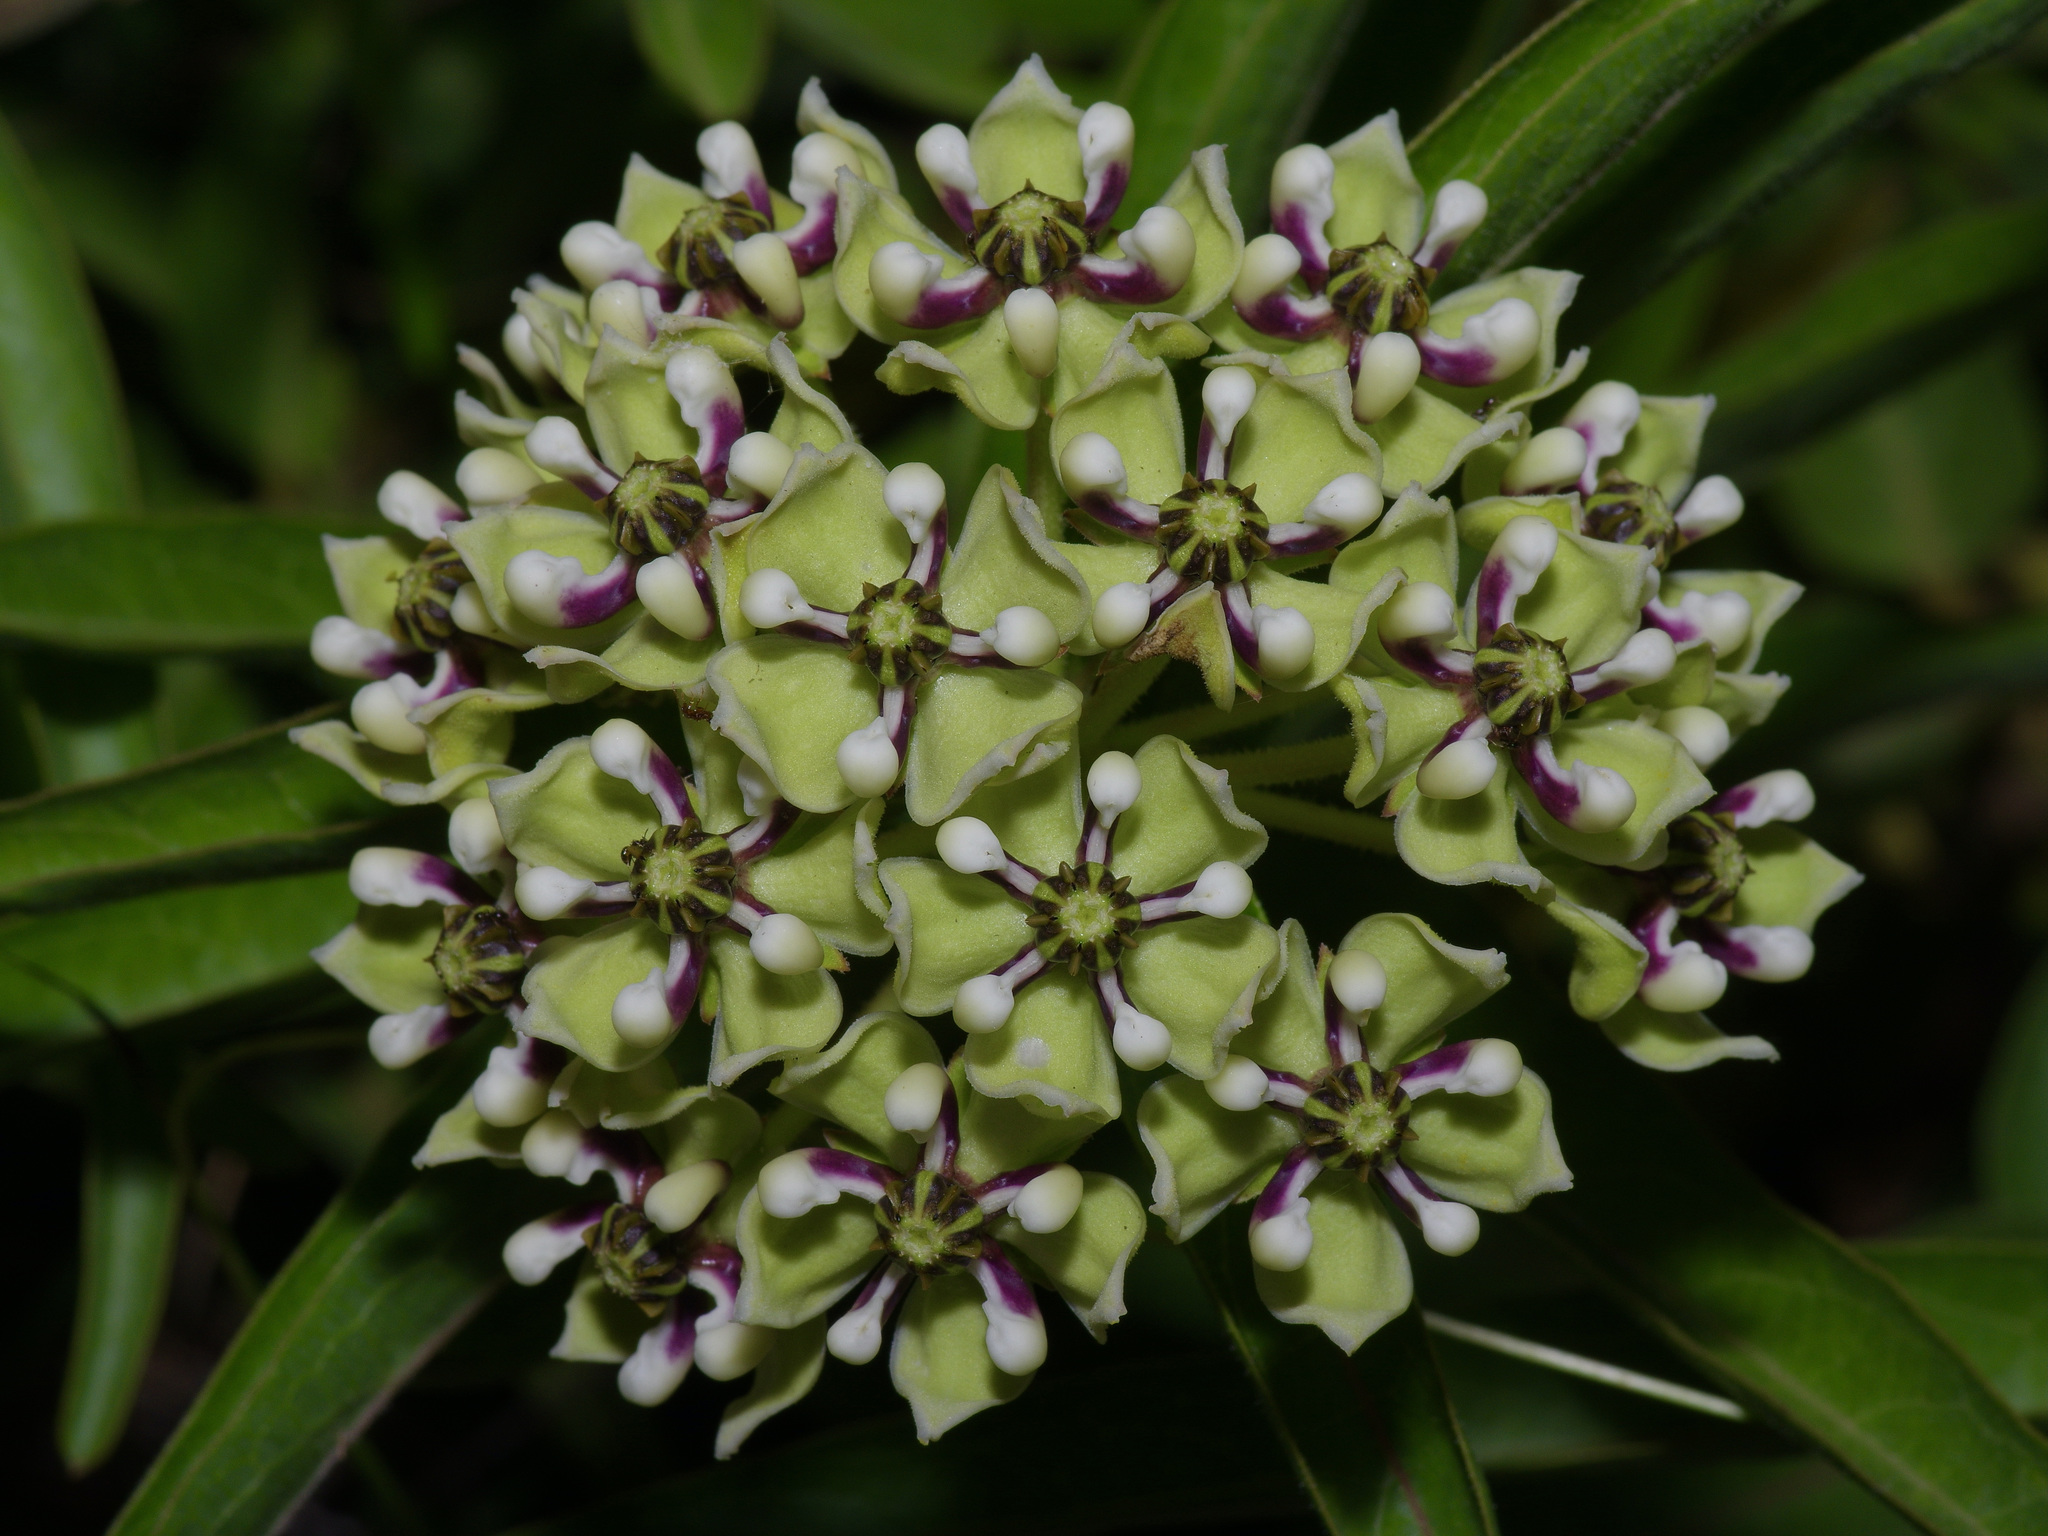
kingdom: Plantae
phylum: Tracheophyta
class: Magnoliopsida
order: Gentianales
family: Apocynaceae
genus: Asclepias
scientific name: Asclepias asperula
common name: Antelope horns
